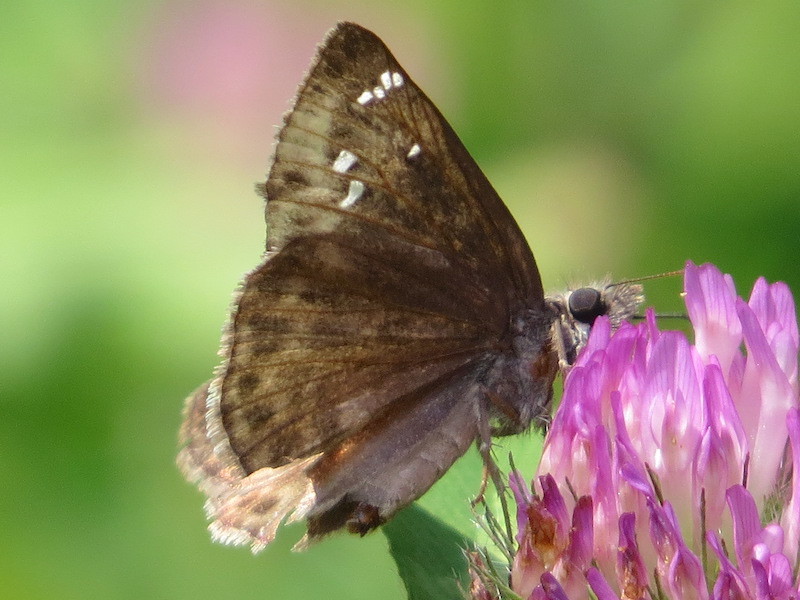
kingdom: Animalia
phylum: Arthropoda
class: Insecta
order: Lepidoptera
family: Hesperiidae
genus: Erynnis
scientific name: Erynnis horatius
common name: Horace's duskywing
